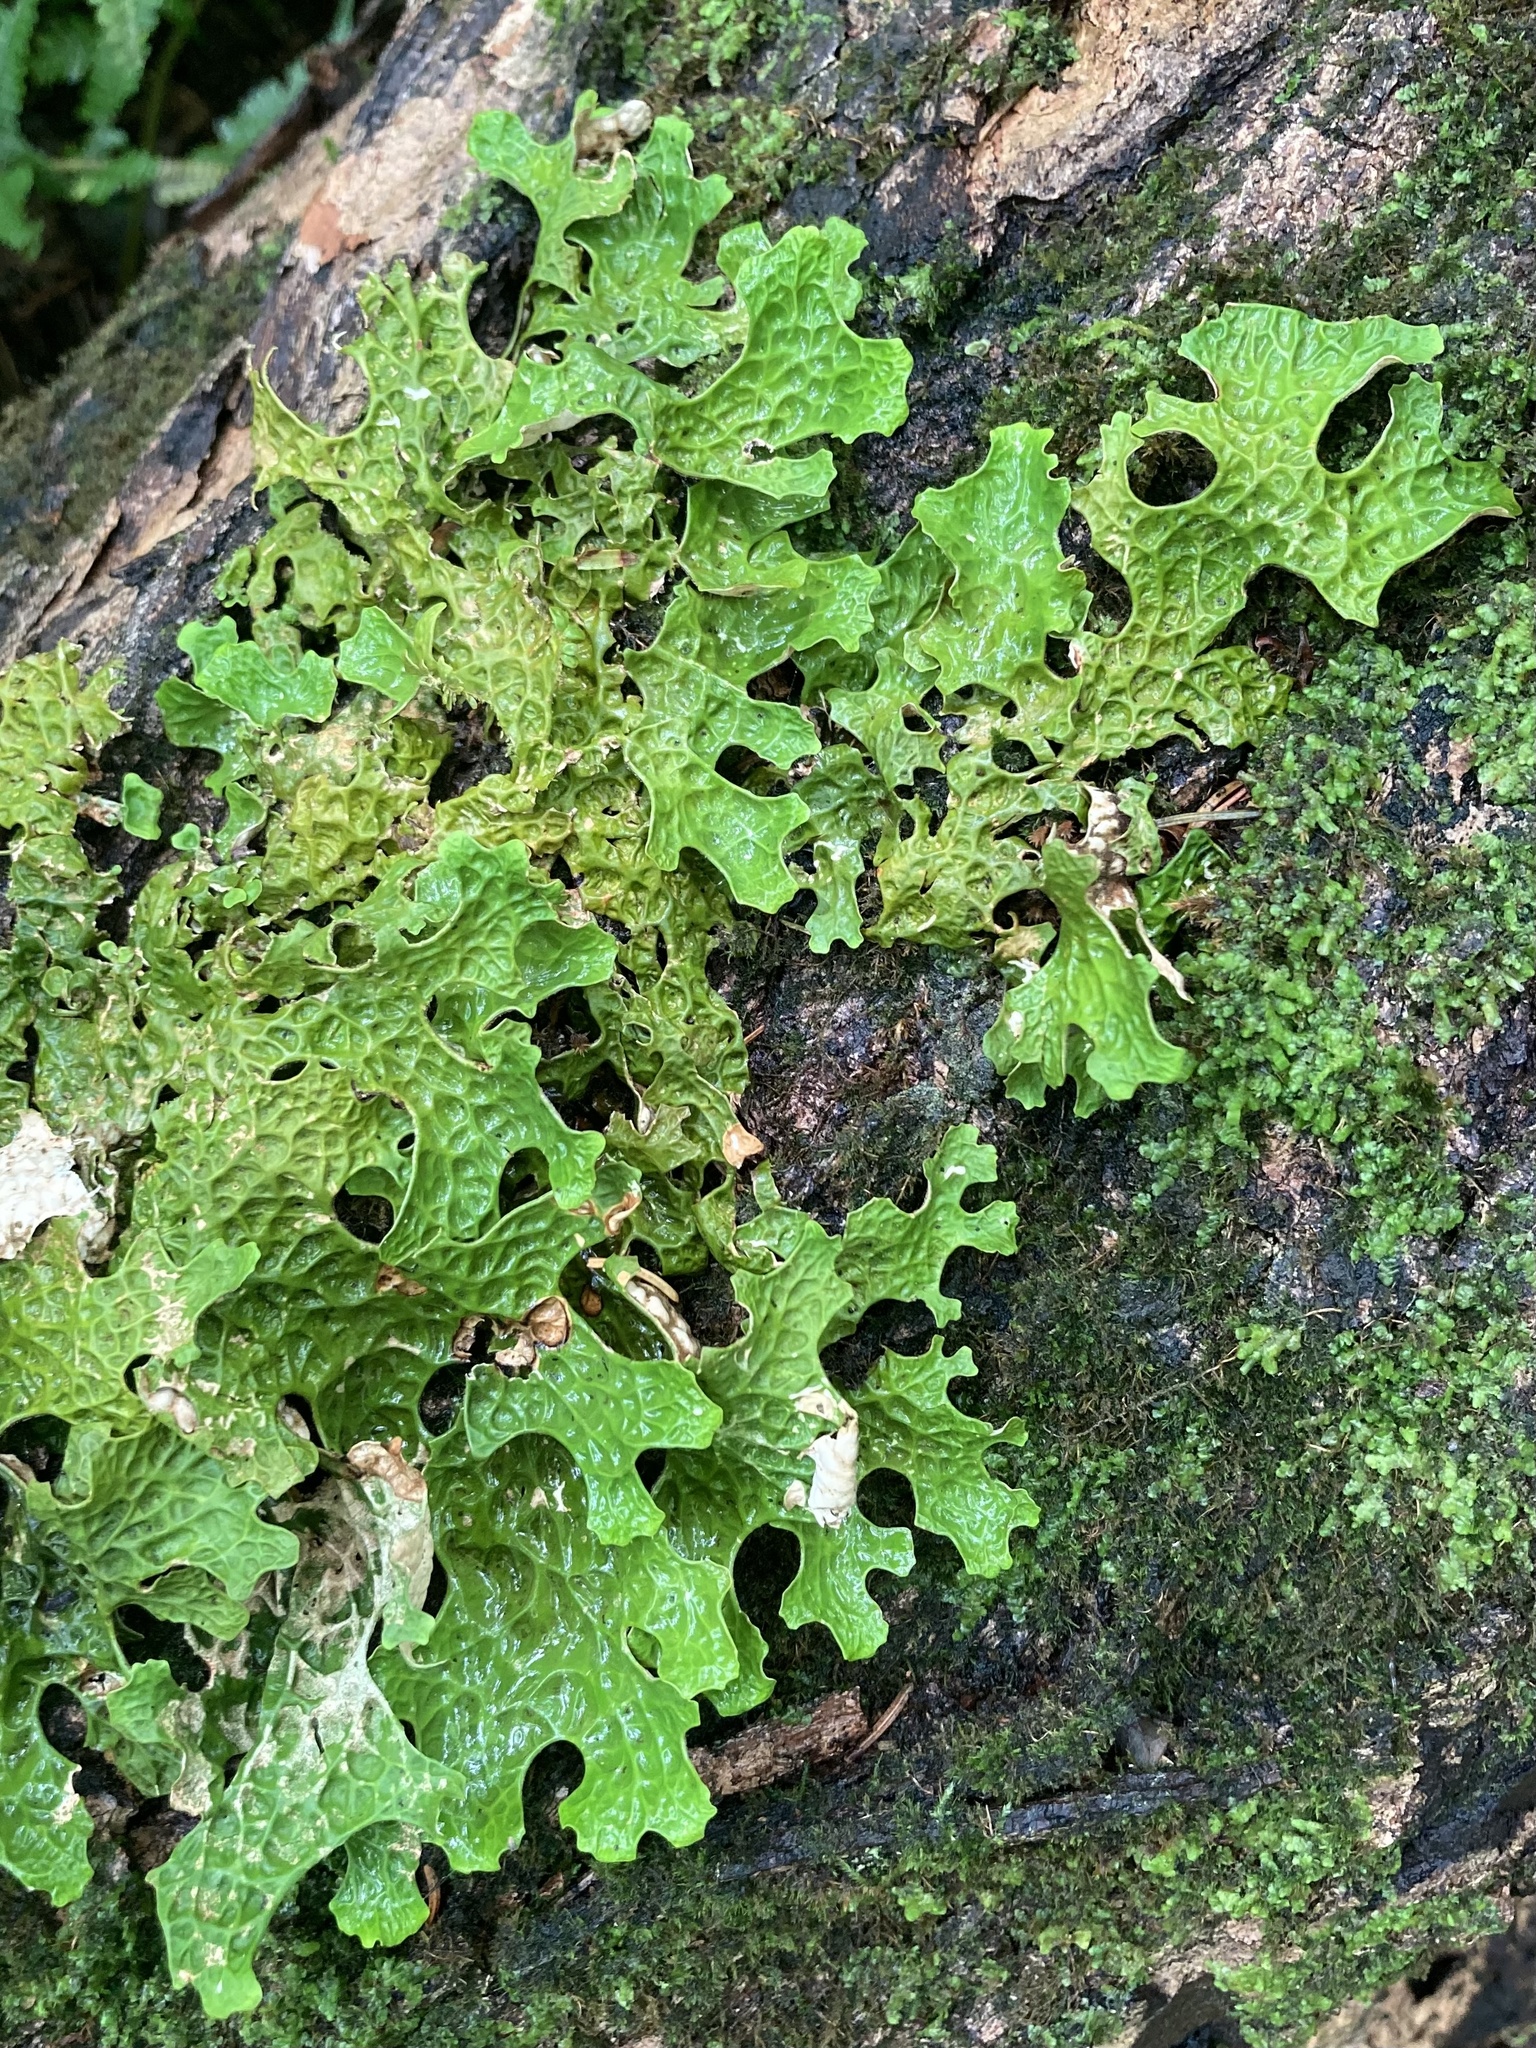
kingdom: Fungi
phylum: Ascomycota
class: Lecanoromycetes
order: Peltigerales
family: Lobariaceae
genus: Lobaria
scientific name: Lobaria pulmonaria
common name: Lungwort
